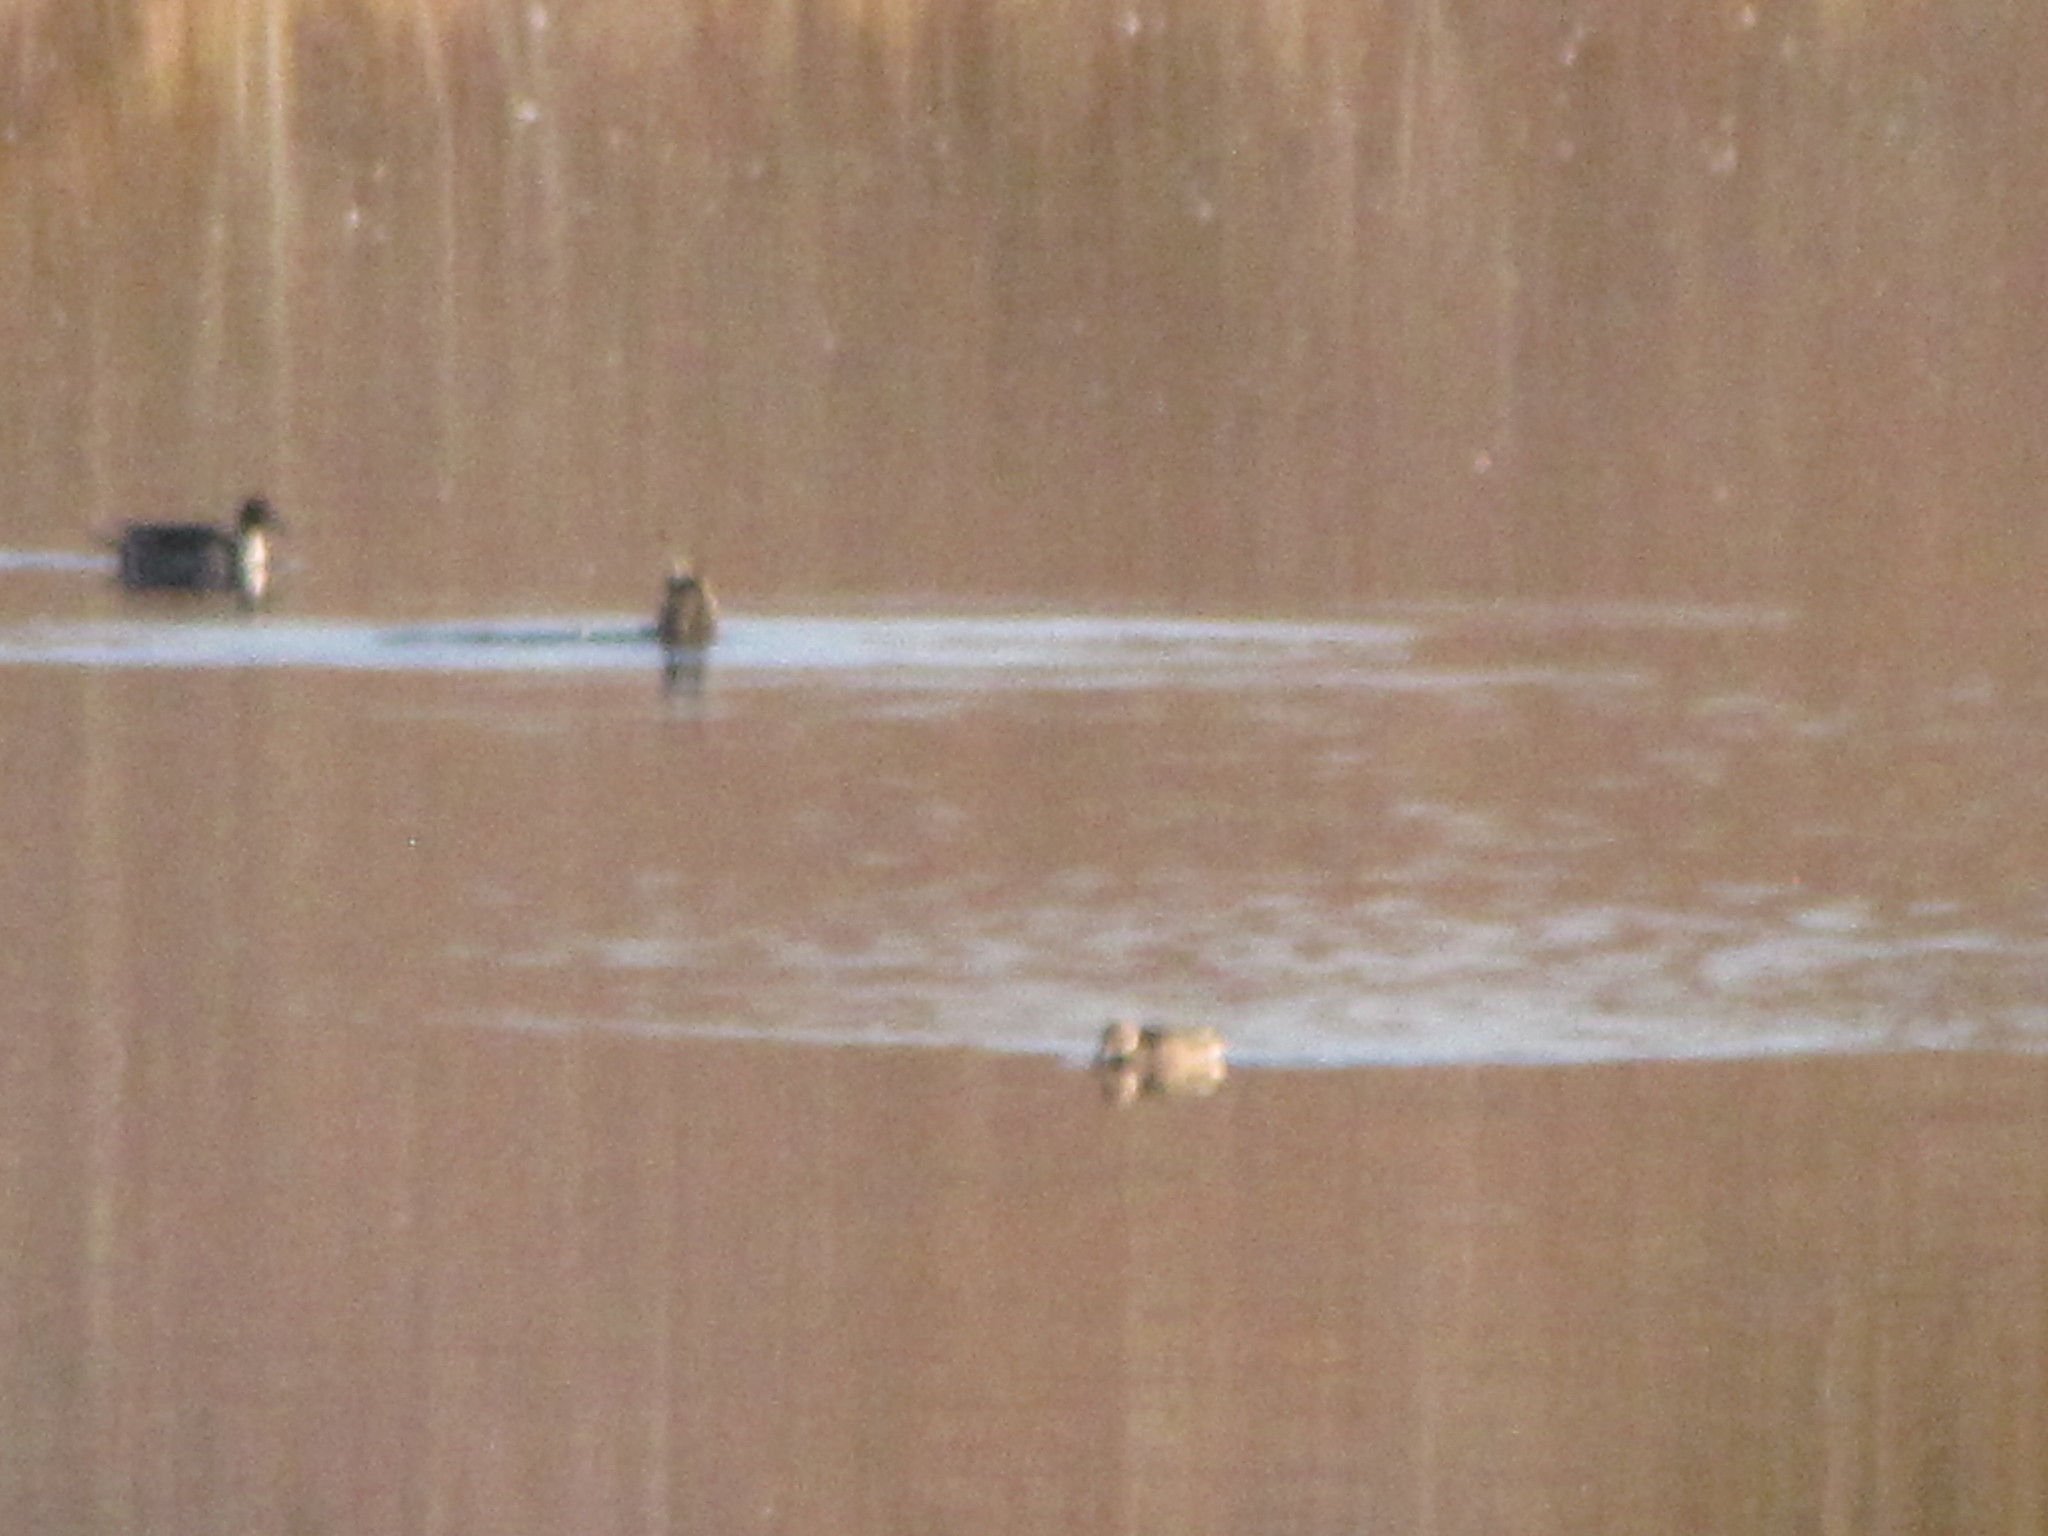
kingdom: Animalia
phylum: Chordata
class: Aves
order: Anseriformes
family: Anatidae
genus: Anas
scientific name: Anas acuta
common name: Northern pintail
